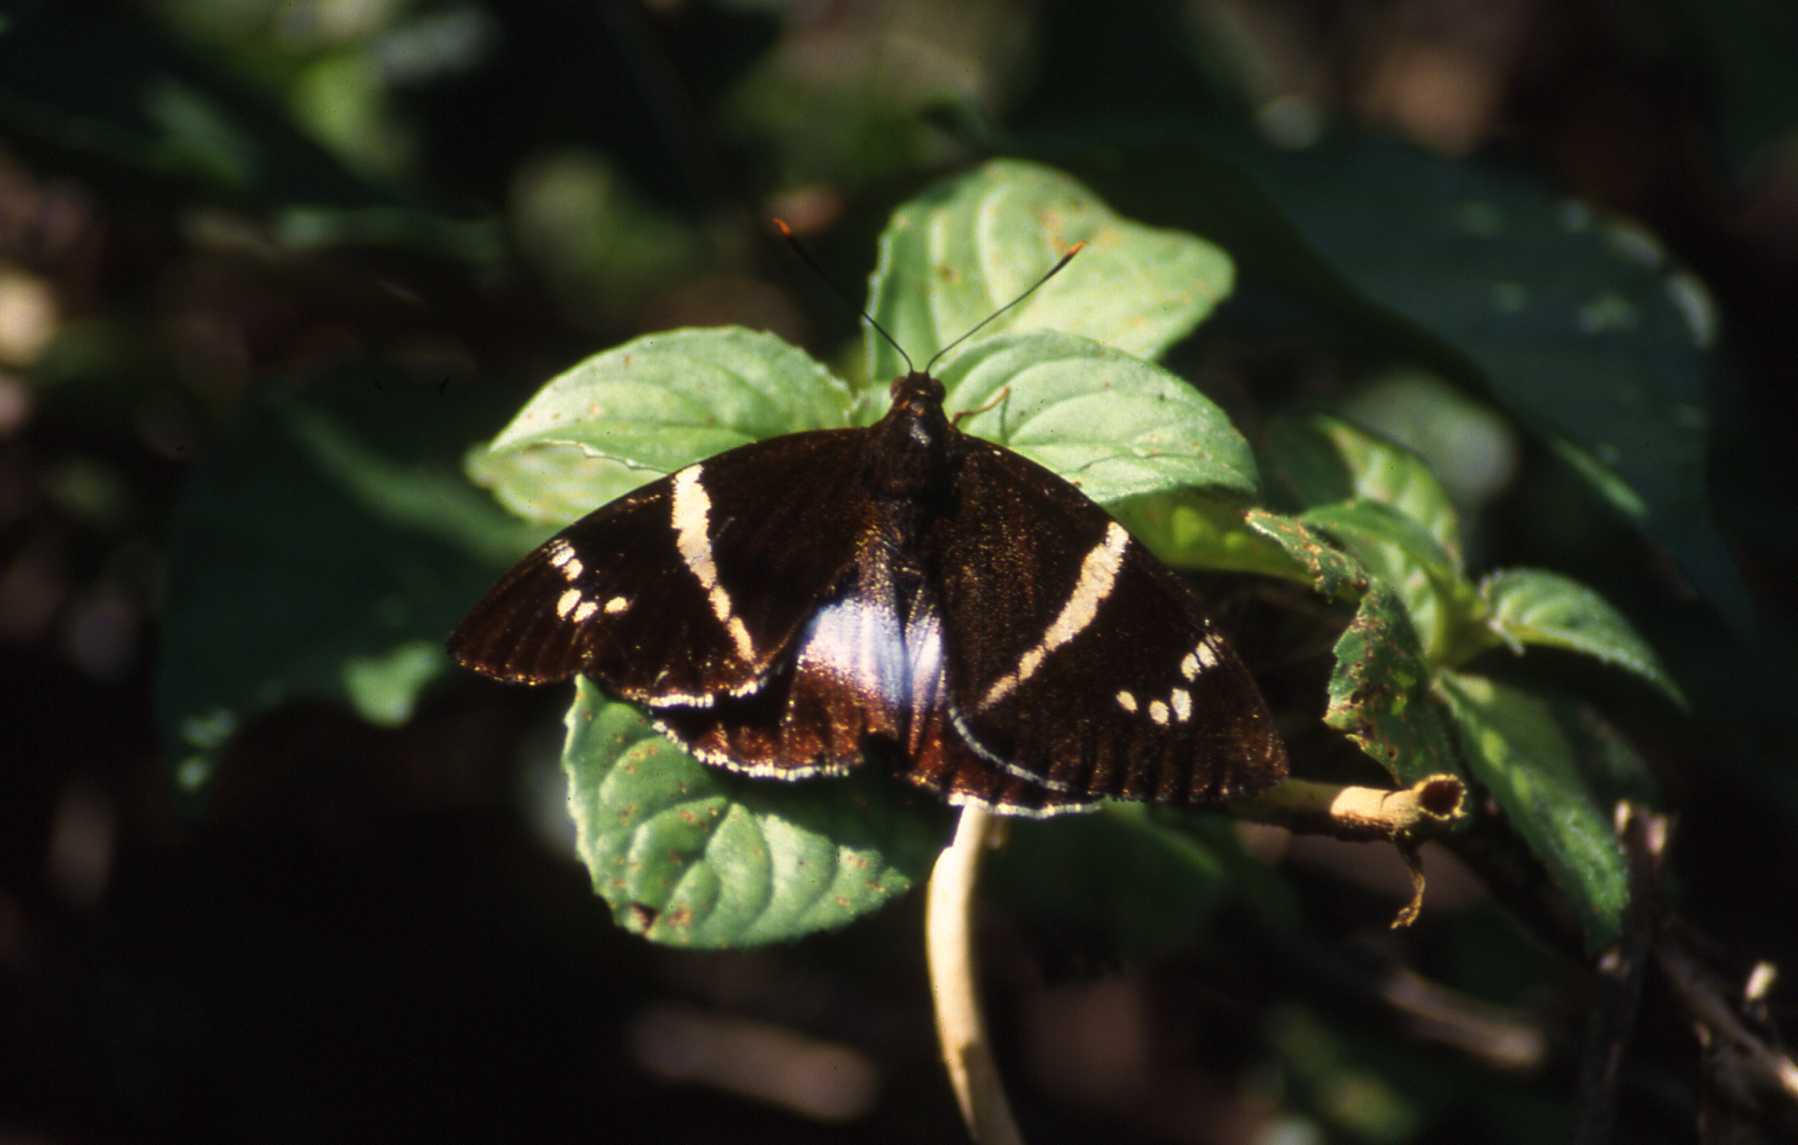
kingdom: Animalia
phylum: Arthropoda
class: Insecta
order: Lepidoptera
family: Castniidae
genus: Castniomera
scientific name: Castniomera atymnius
